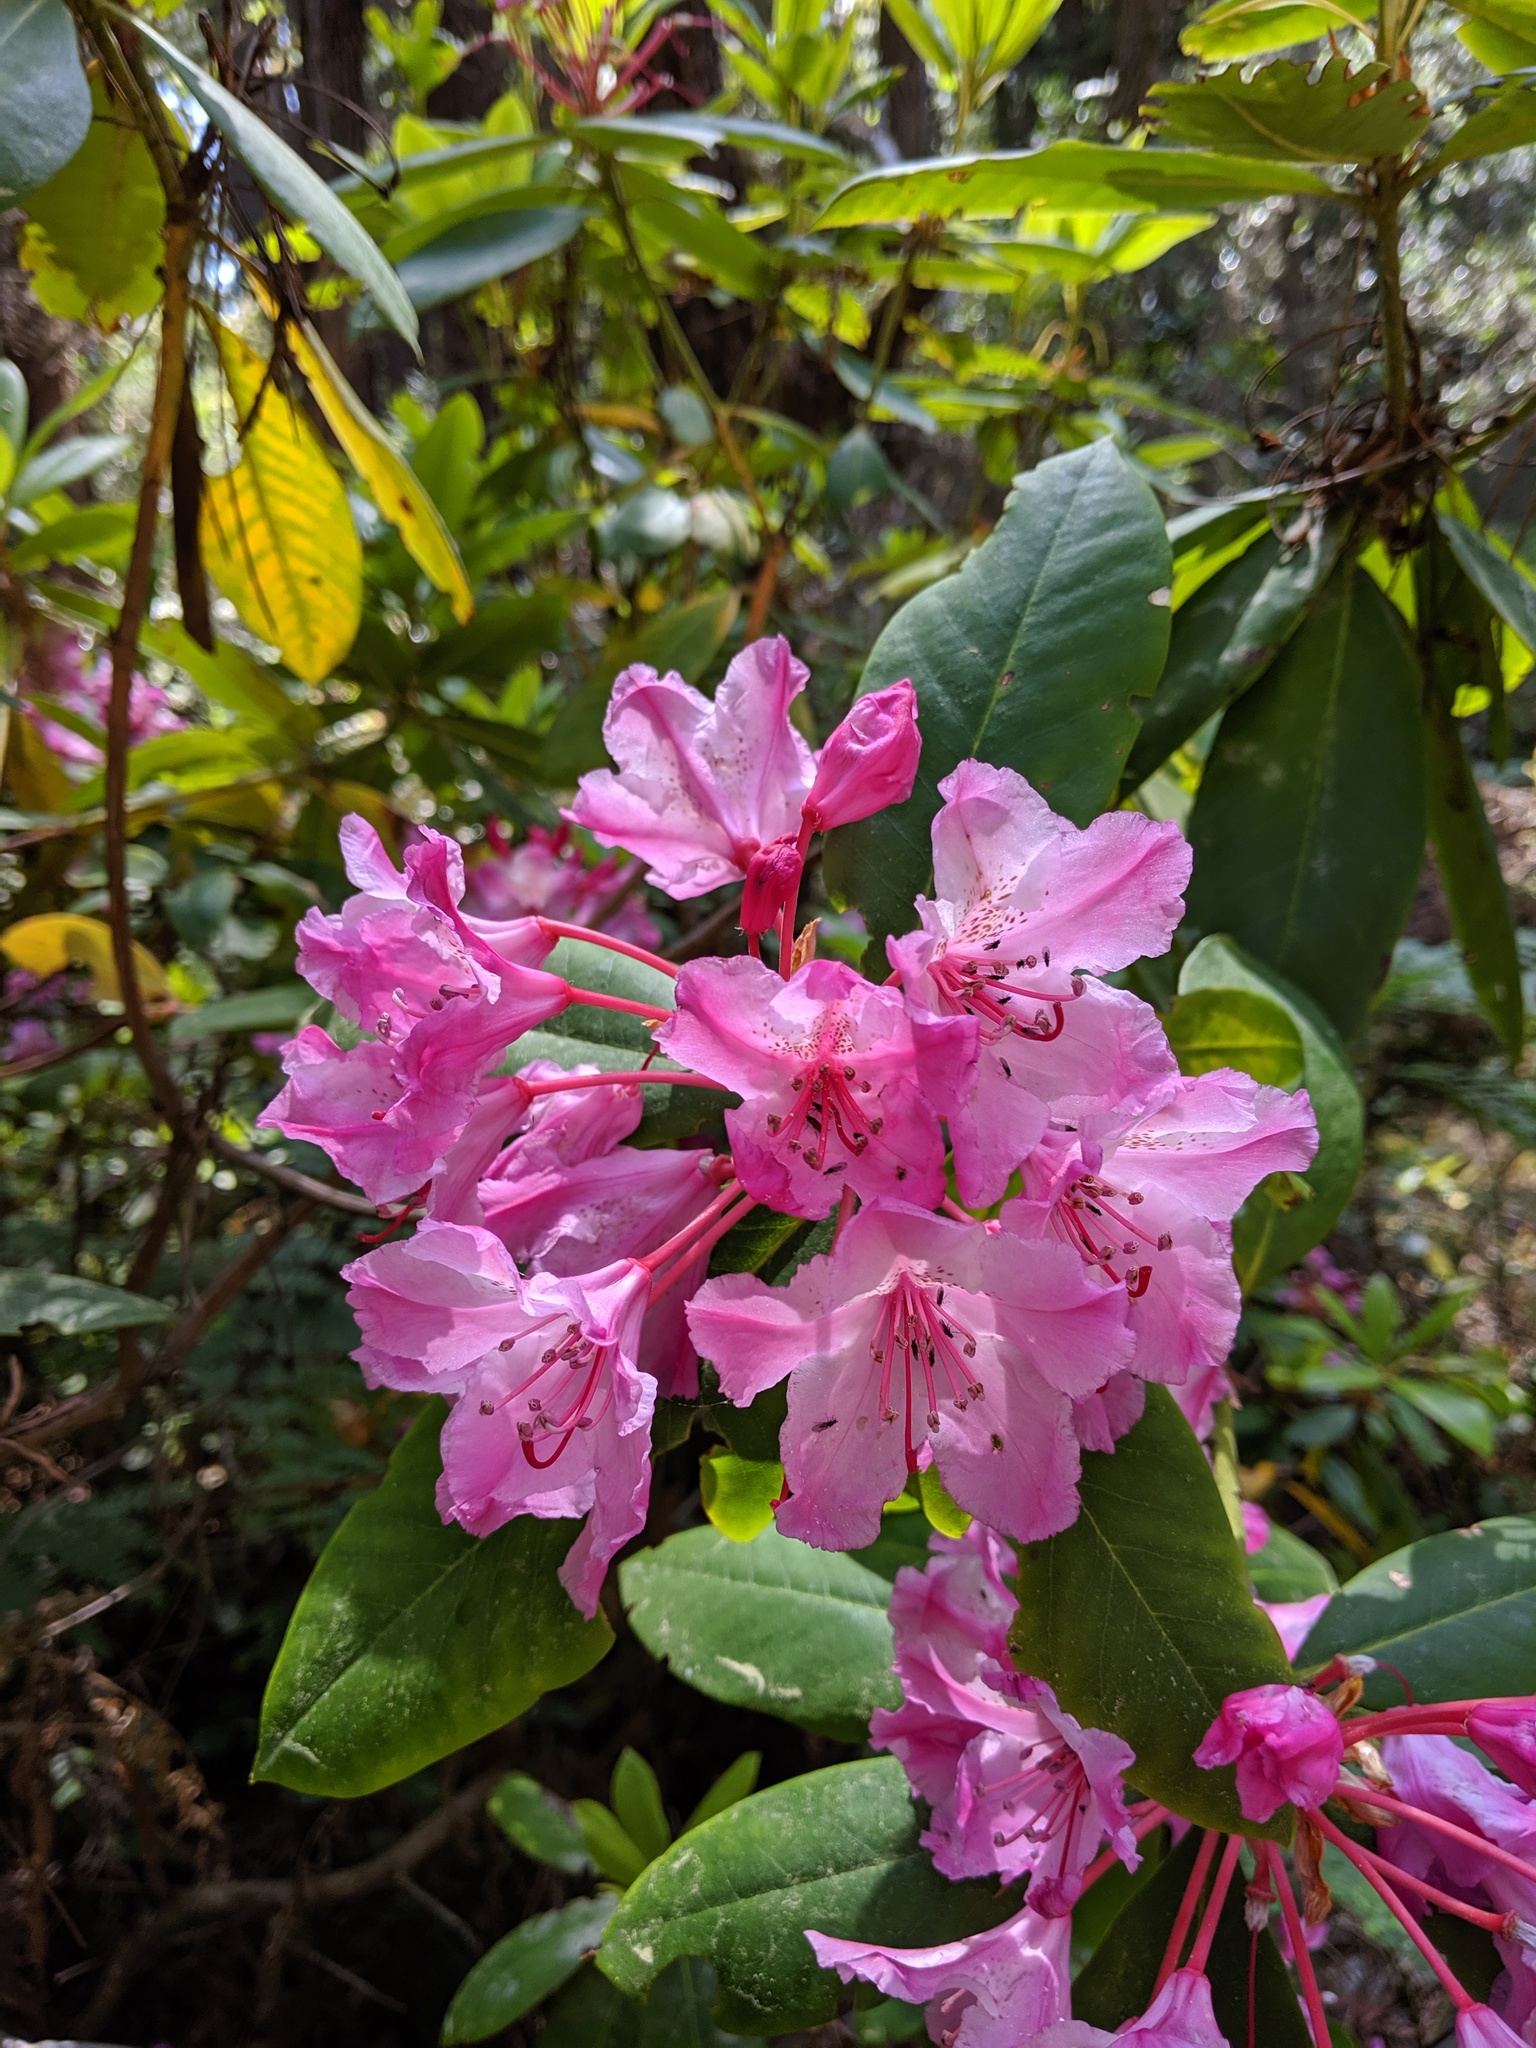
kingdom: Plantae
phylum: Tracheophyta
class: Magnoliopsida
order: Ericales
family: Ericaceae
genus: Rhododendron
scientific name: Rhododendron macrophyllum
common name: California rose bay
